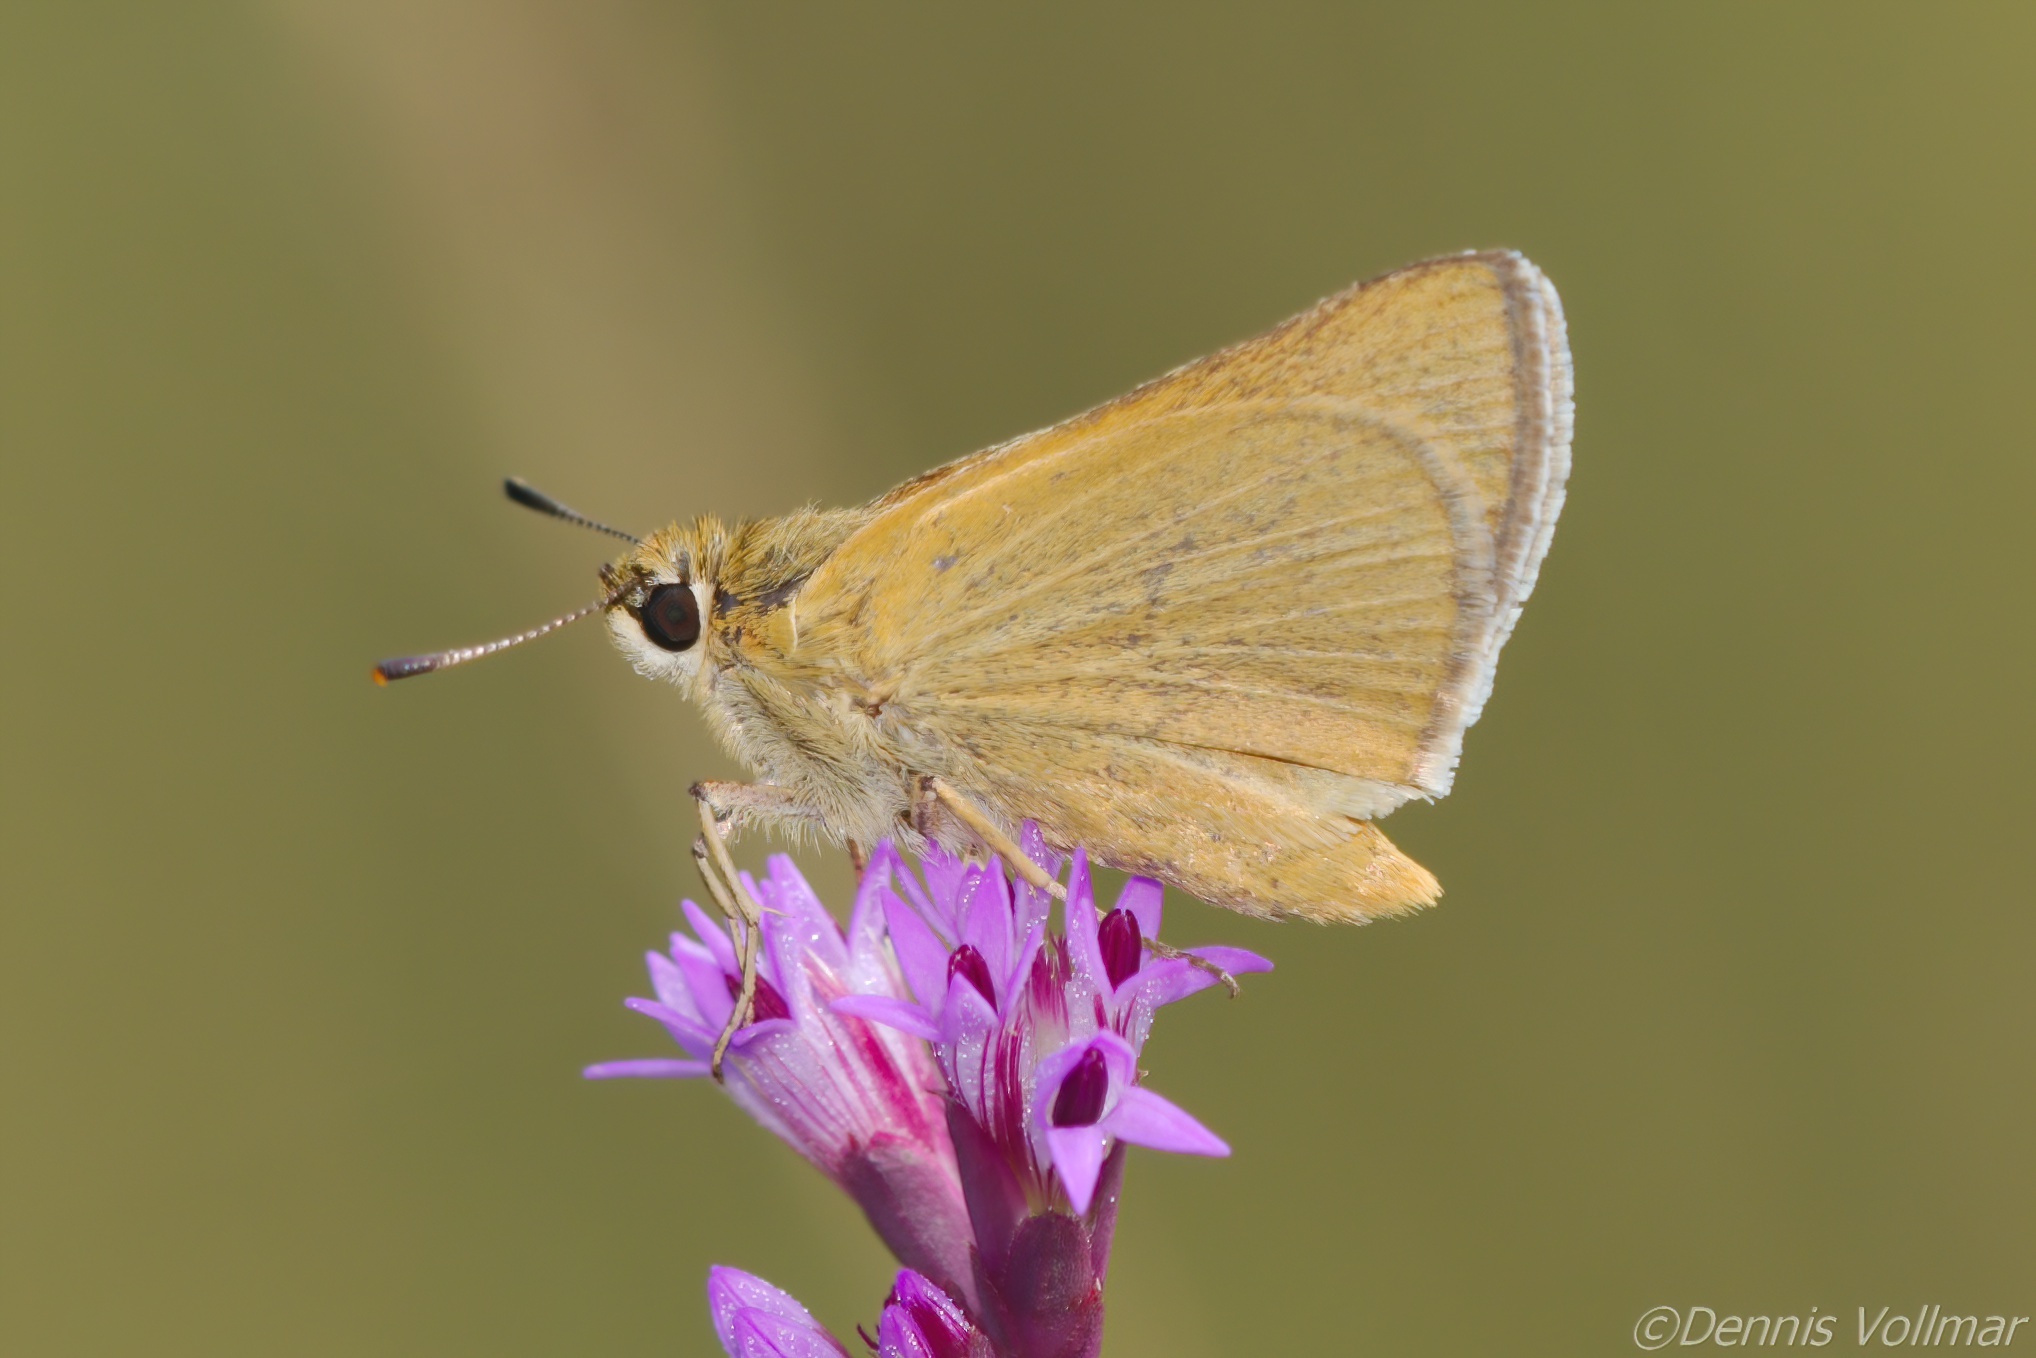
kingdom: Animalia
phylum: Arthropoda
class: Insecta
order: Lepidoptera
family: Hesperiidae
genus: Atrytone
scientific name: Atrytone arogos
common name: Arogos skipper
